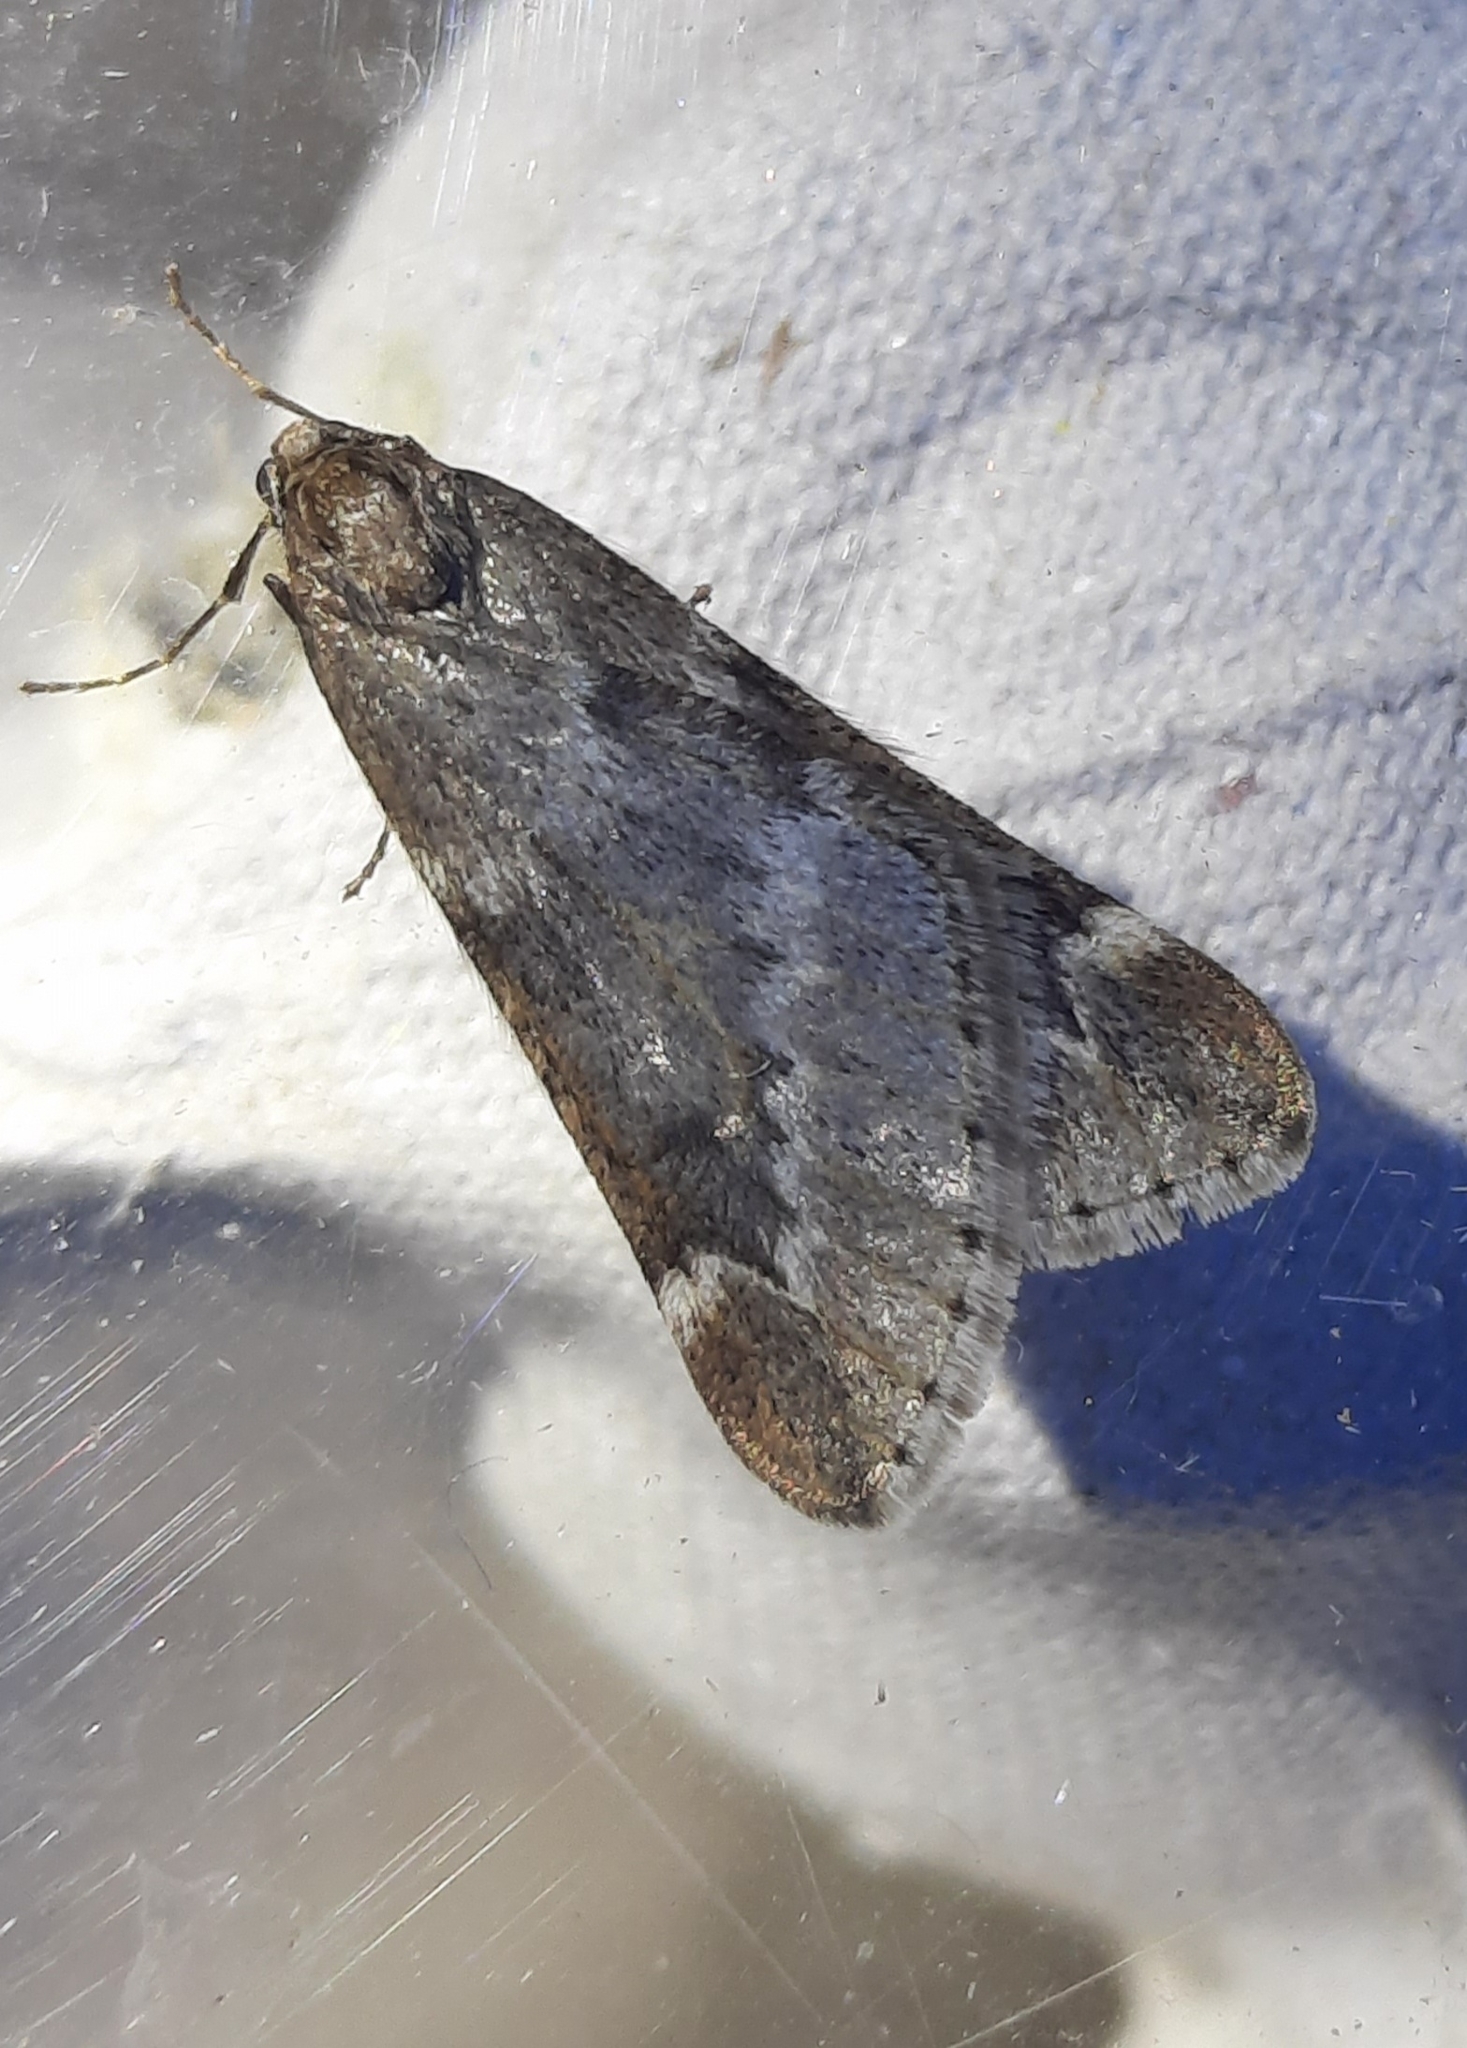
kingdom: Animalia
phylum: Arthropoda
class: Insecta
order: Lepidoptera
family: Geometridae
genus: Alsophila
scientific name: Alsophila aescularia
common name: March moth
